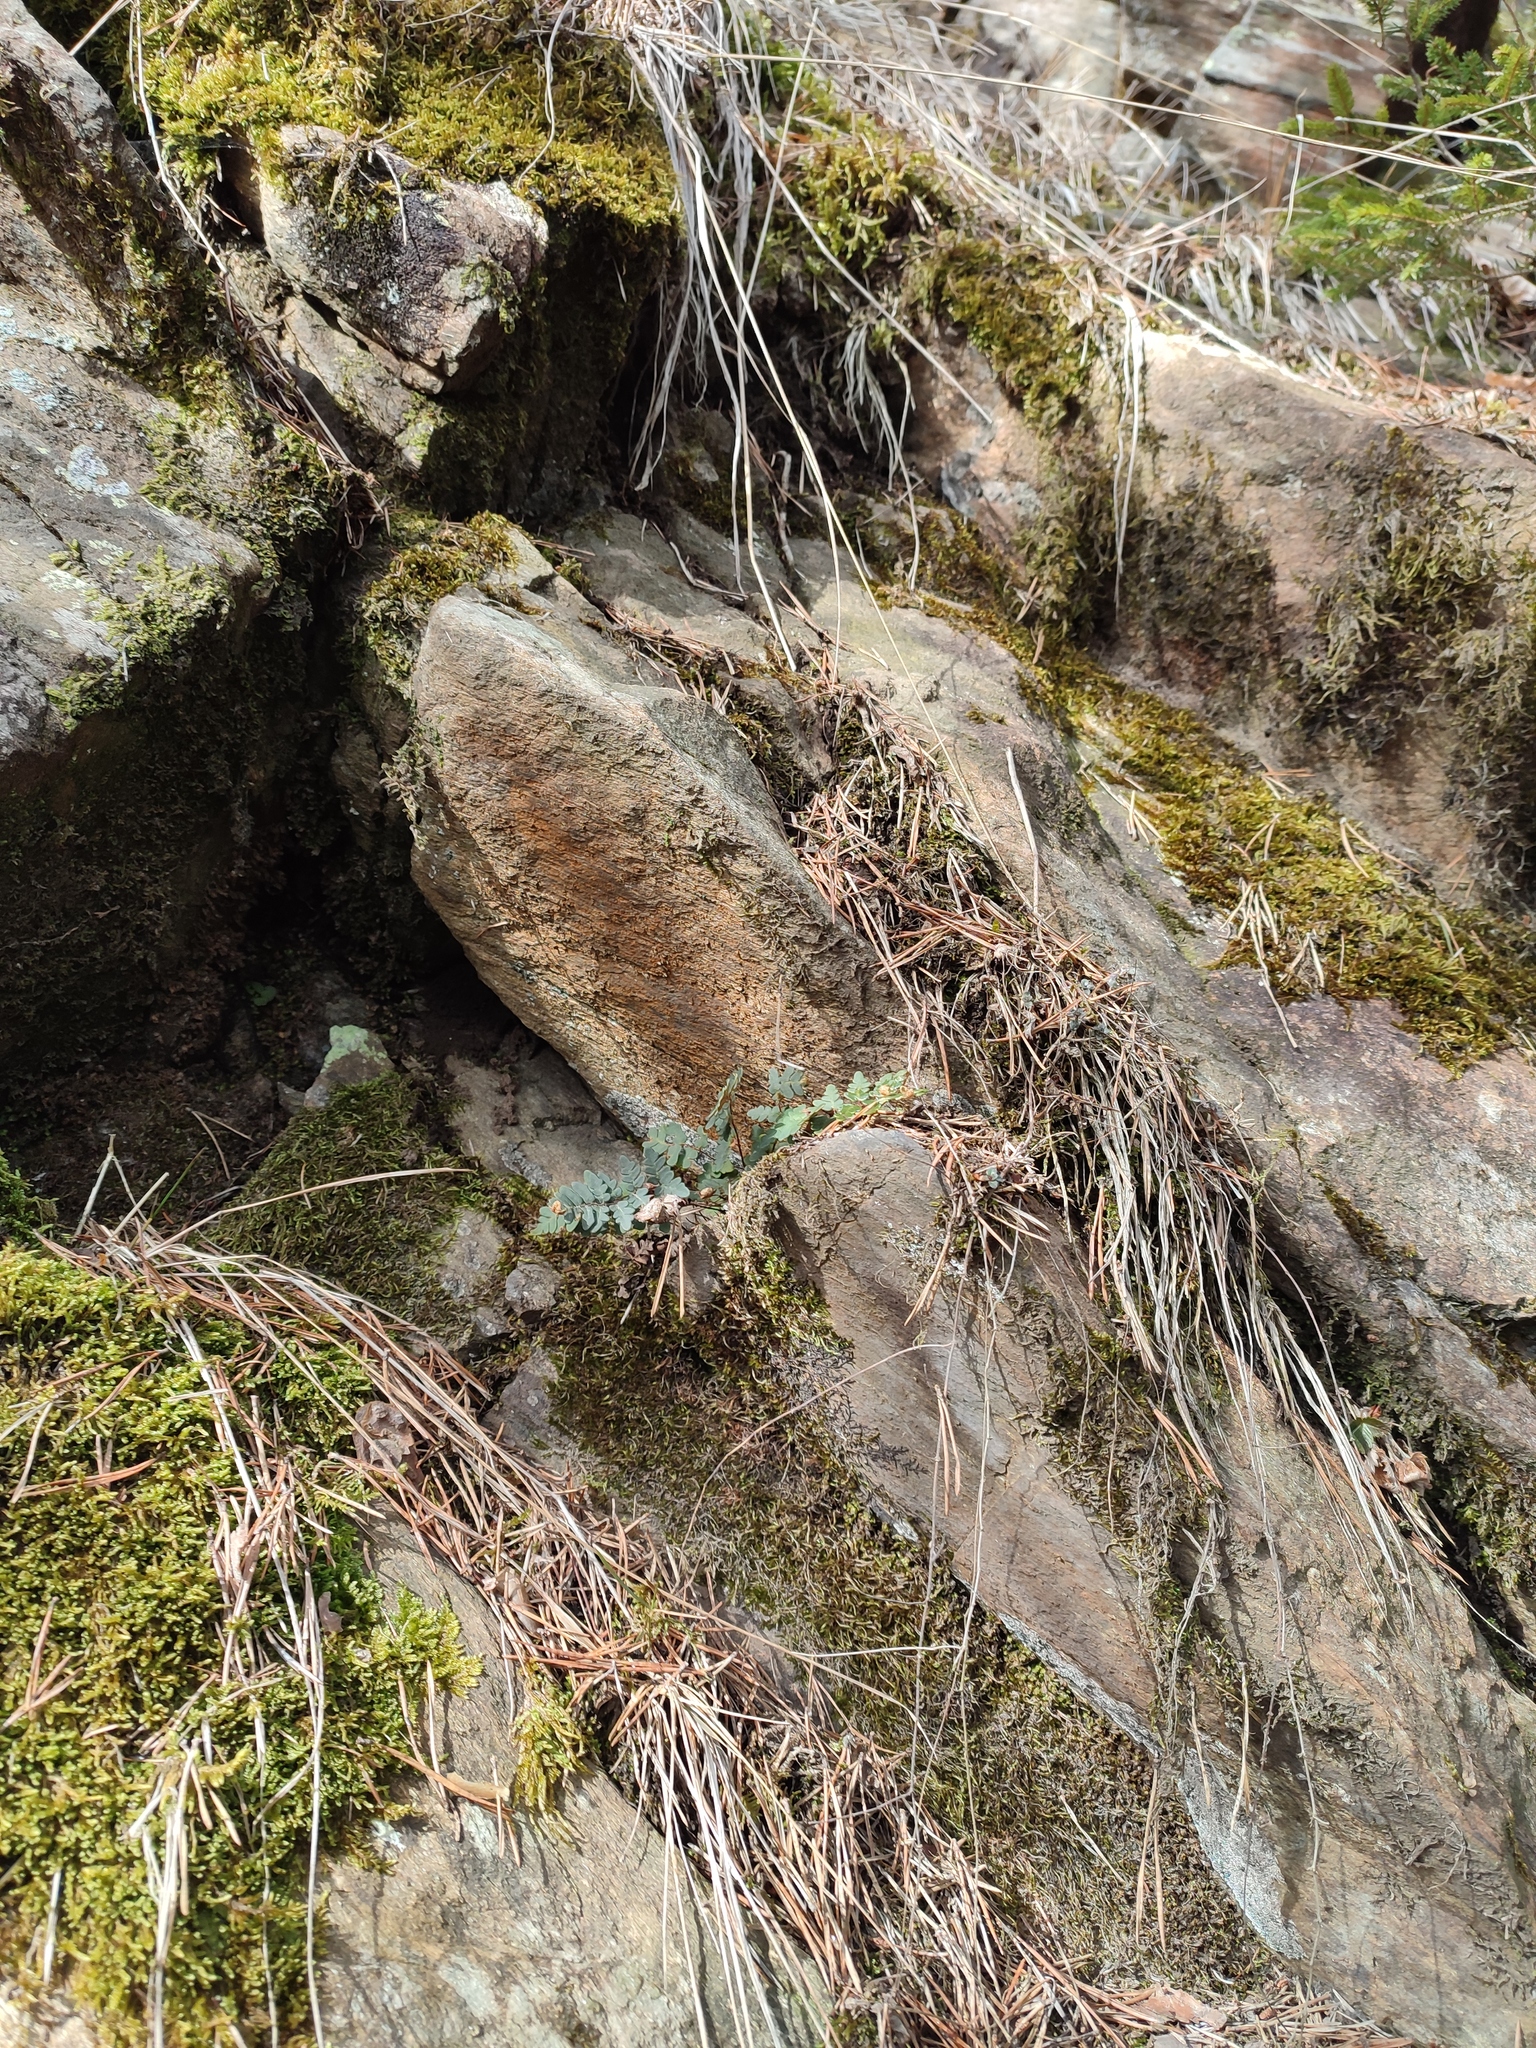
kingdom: Plantae
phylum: Tracheophyta
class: Polypodiopsida
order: Polypodiales
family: Pteridaceae
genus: Paragymnopteris
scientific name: Paragymnopteris marantae
